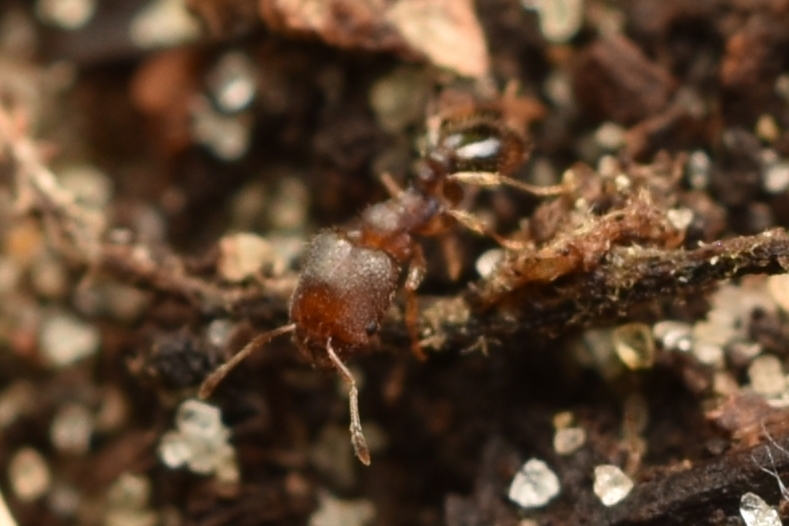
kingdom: Animalia
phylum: Arthropoda
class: Insecta
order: Hymenoptera
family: Formicidae
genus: Pheidole
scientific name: Pheidole metallescens
